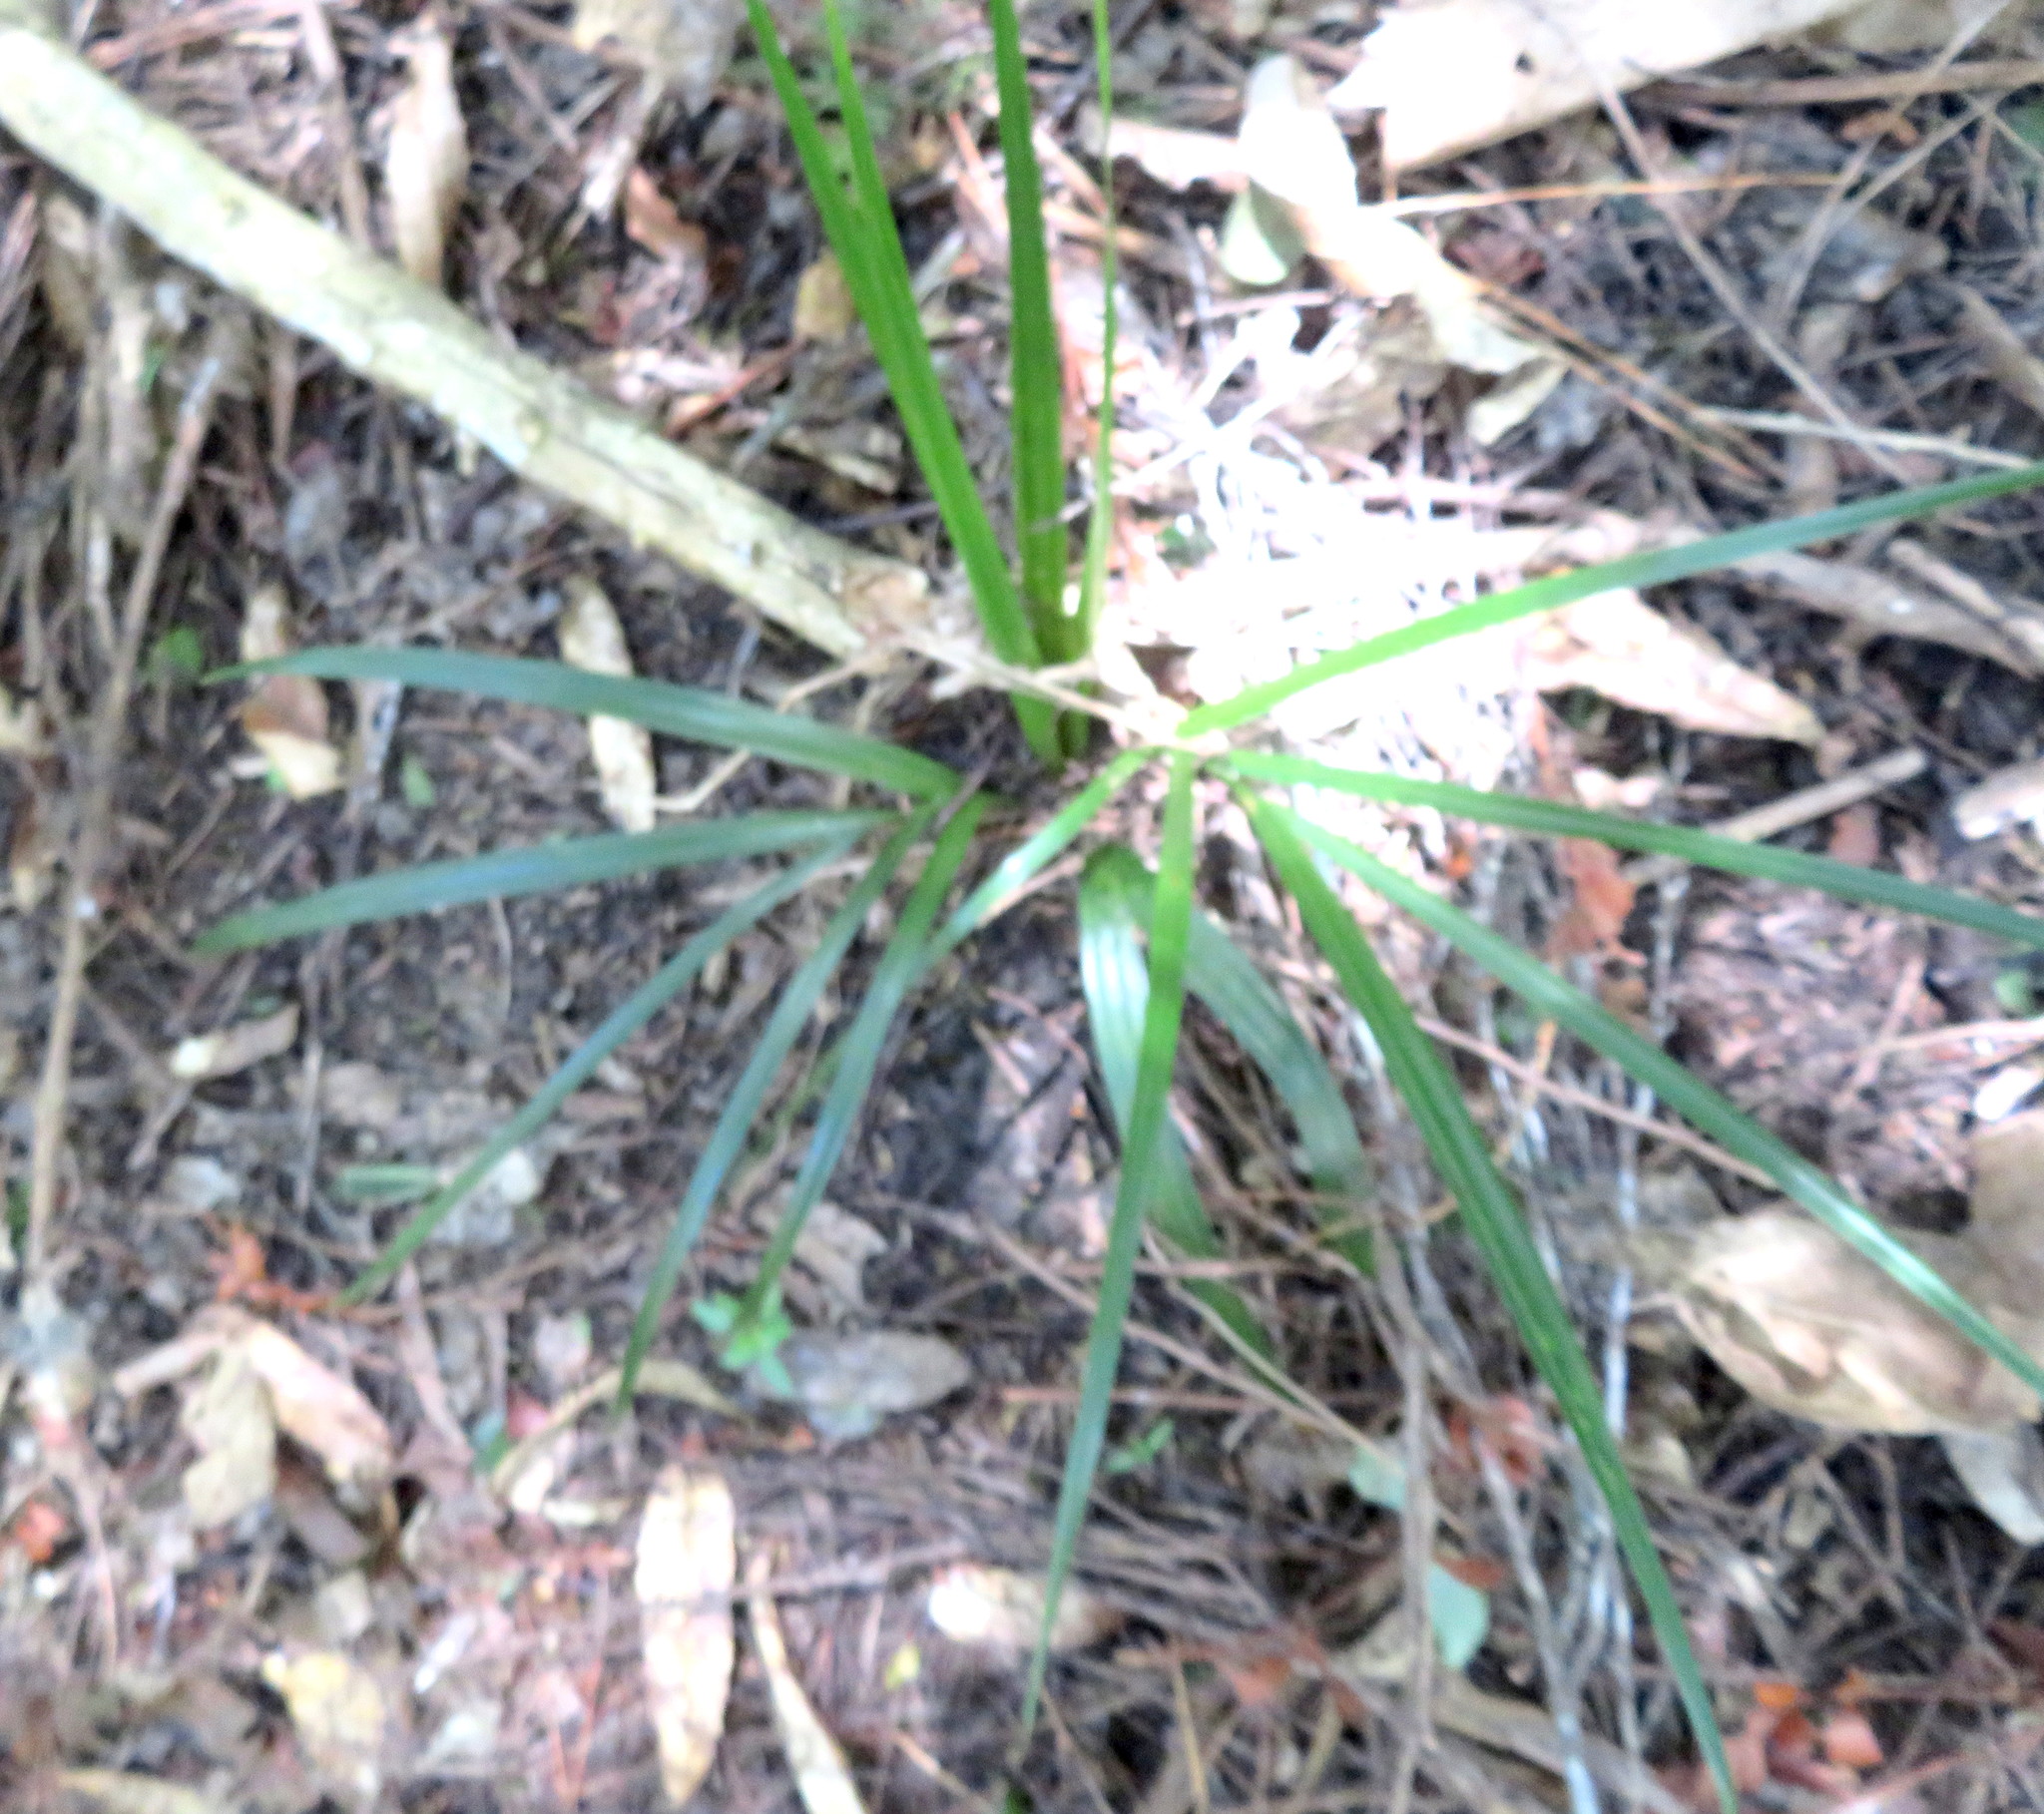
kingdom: Plantae
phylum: Tracheophyta
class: Liliopsida
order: Arecales
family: Arecaceae
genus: Rhopalostylis
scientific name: Rhopalostylis sapida
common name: Feather-duster palm
